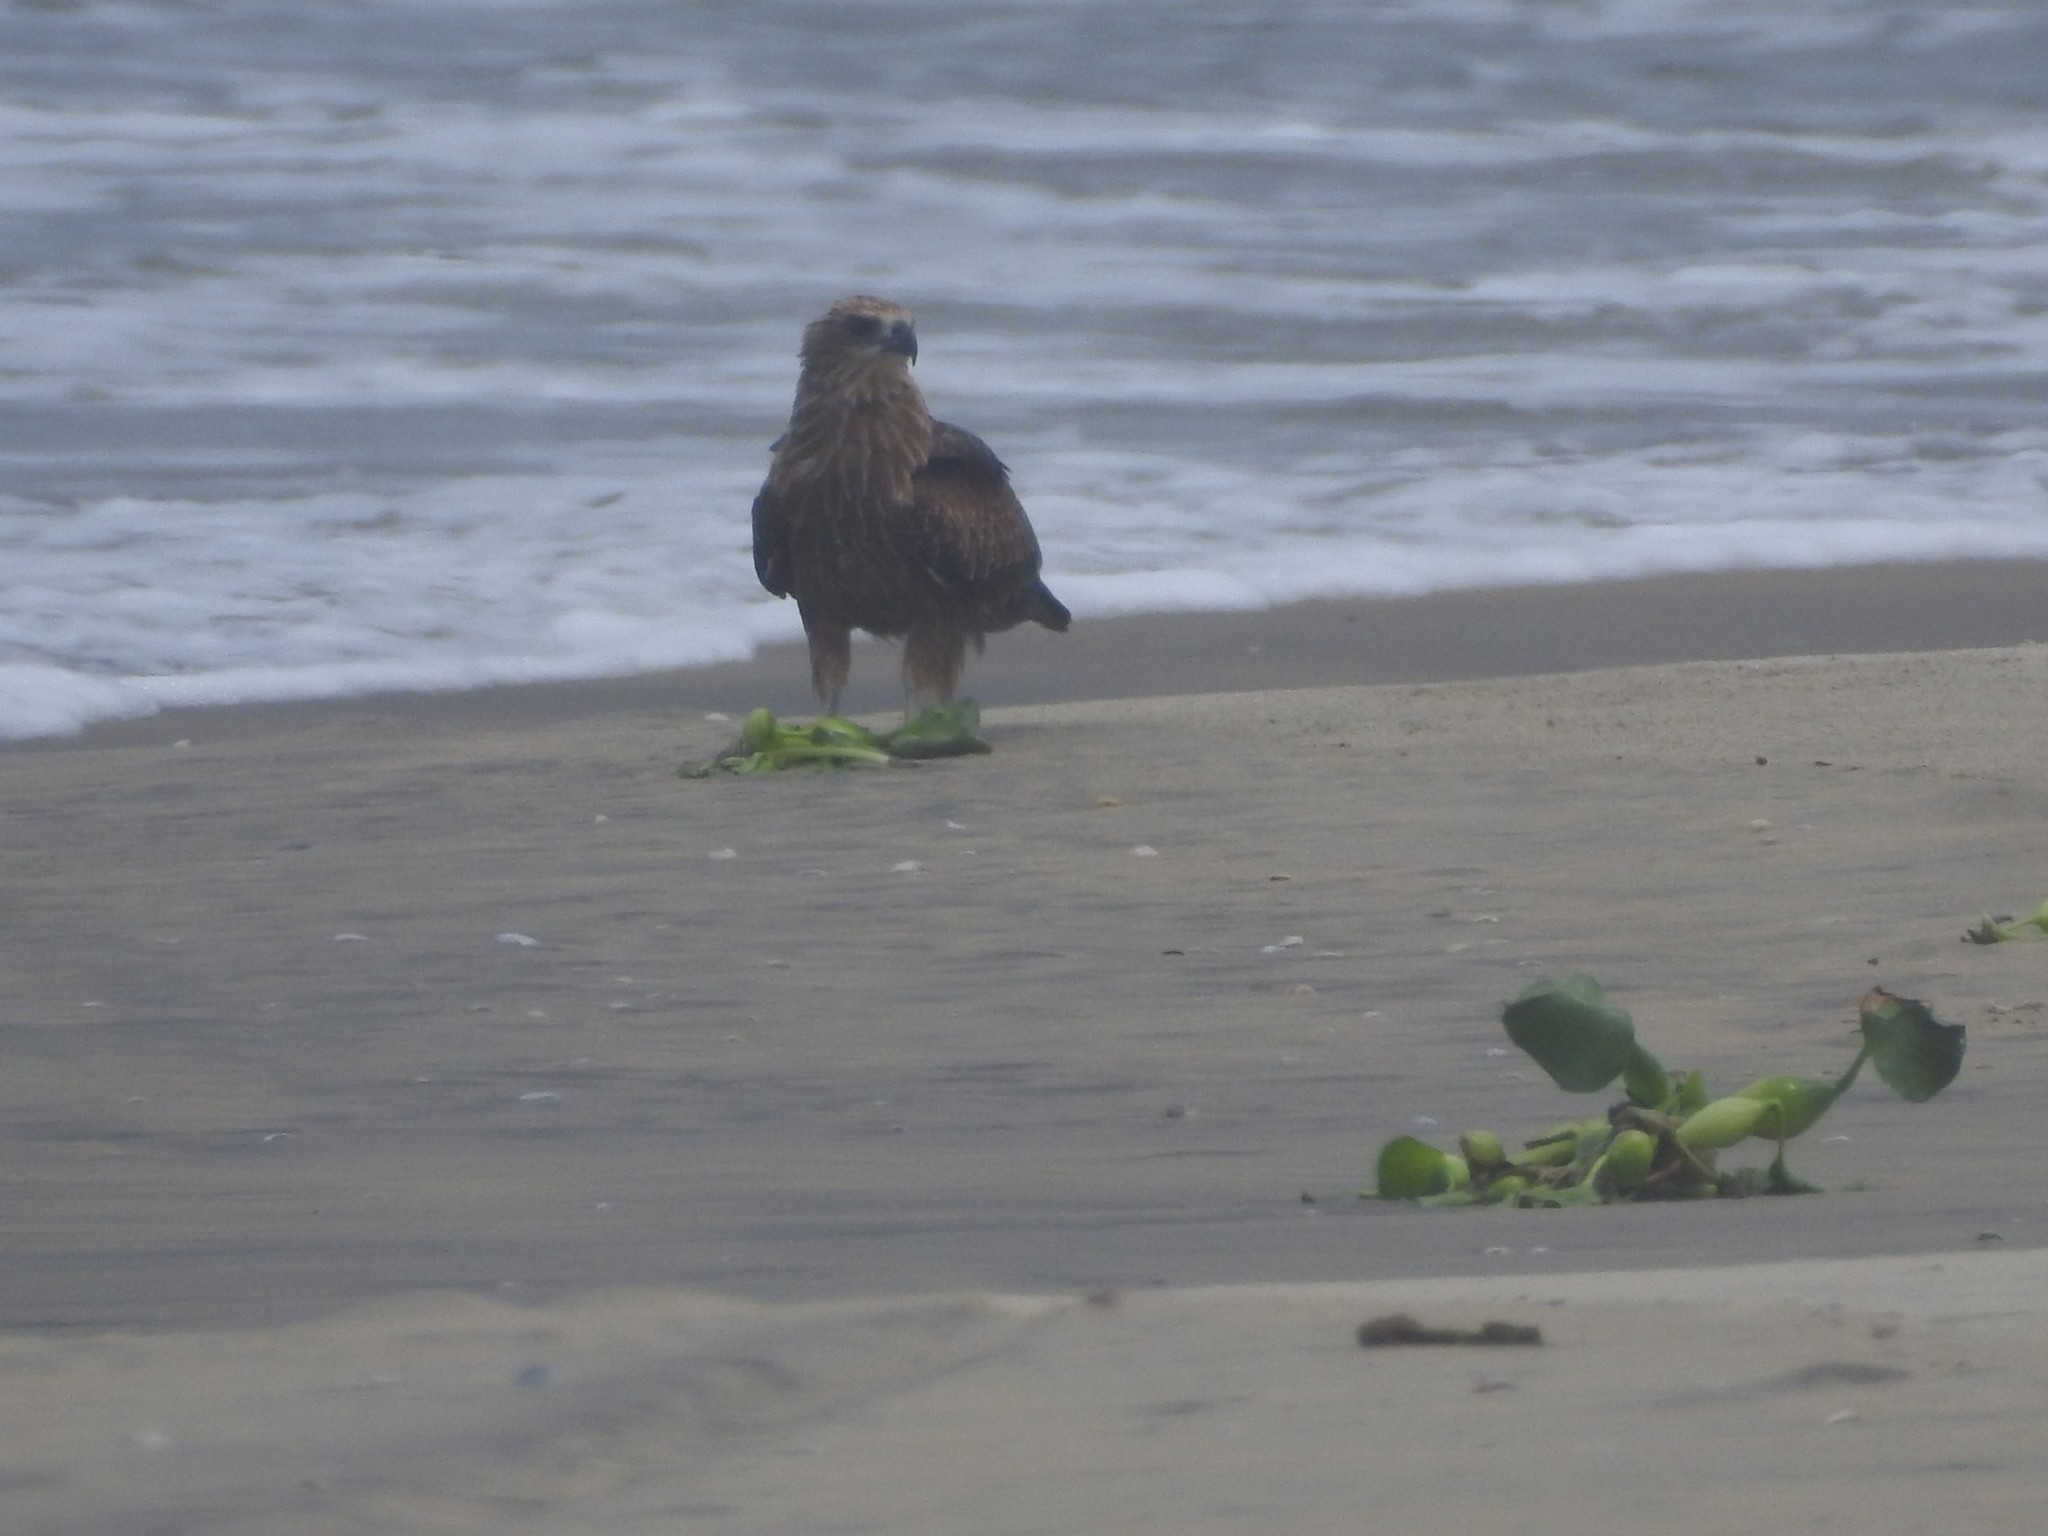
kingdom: Animalia
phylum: Chordata
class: Aves
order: Accipitriformes
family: Accipitridae
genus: Haliastur
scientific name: Haliastur indus
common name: Brahminy kite
